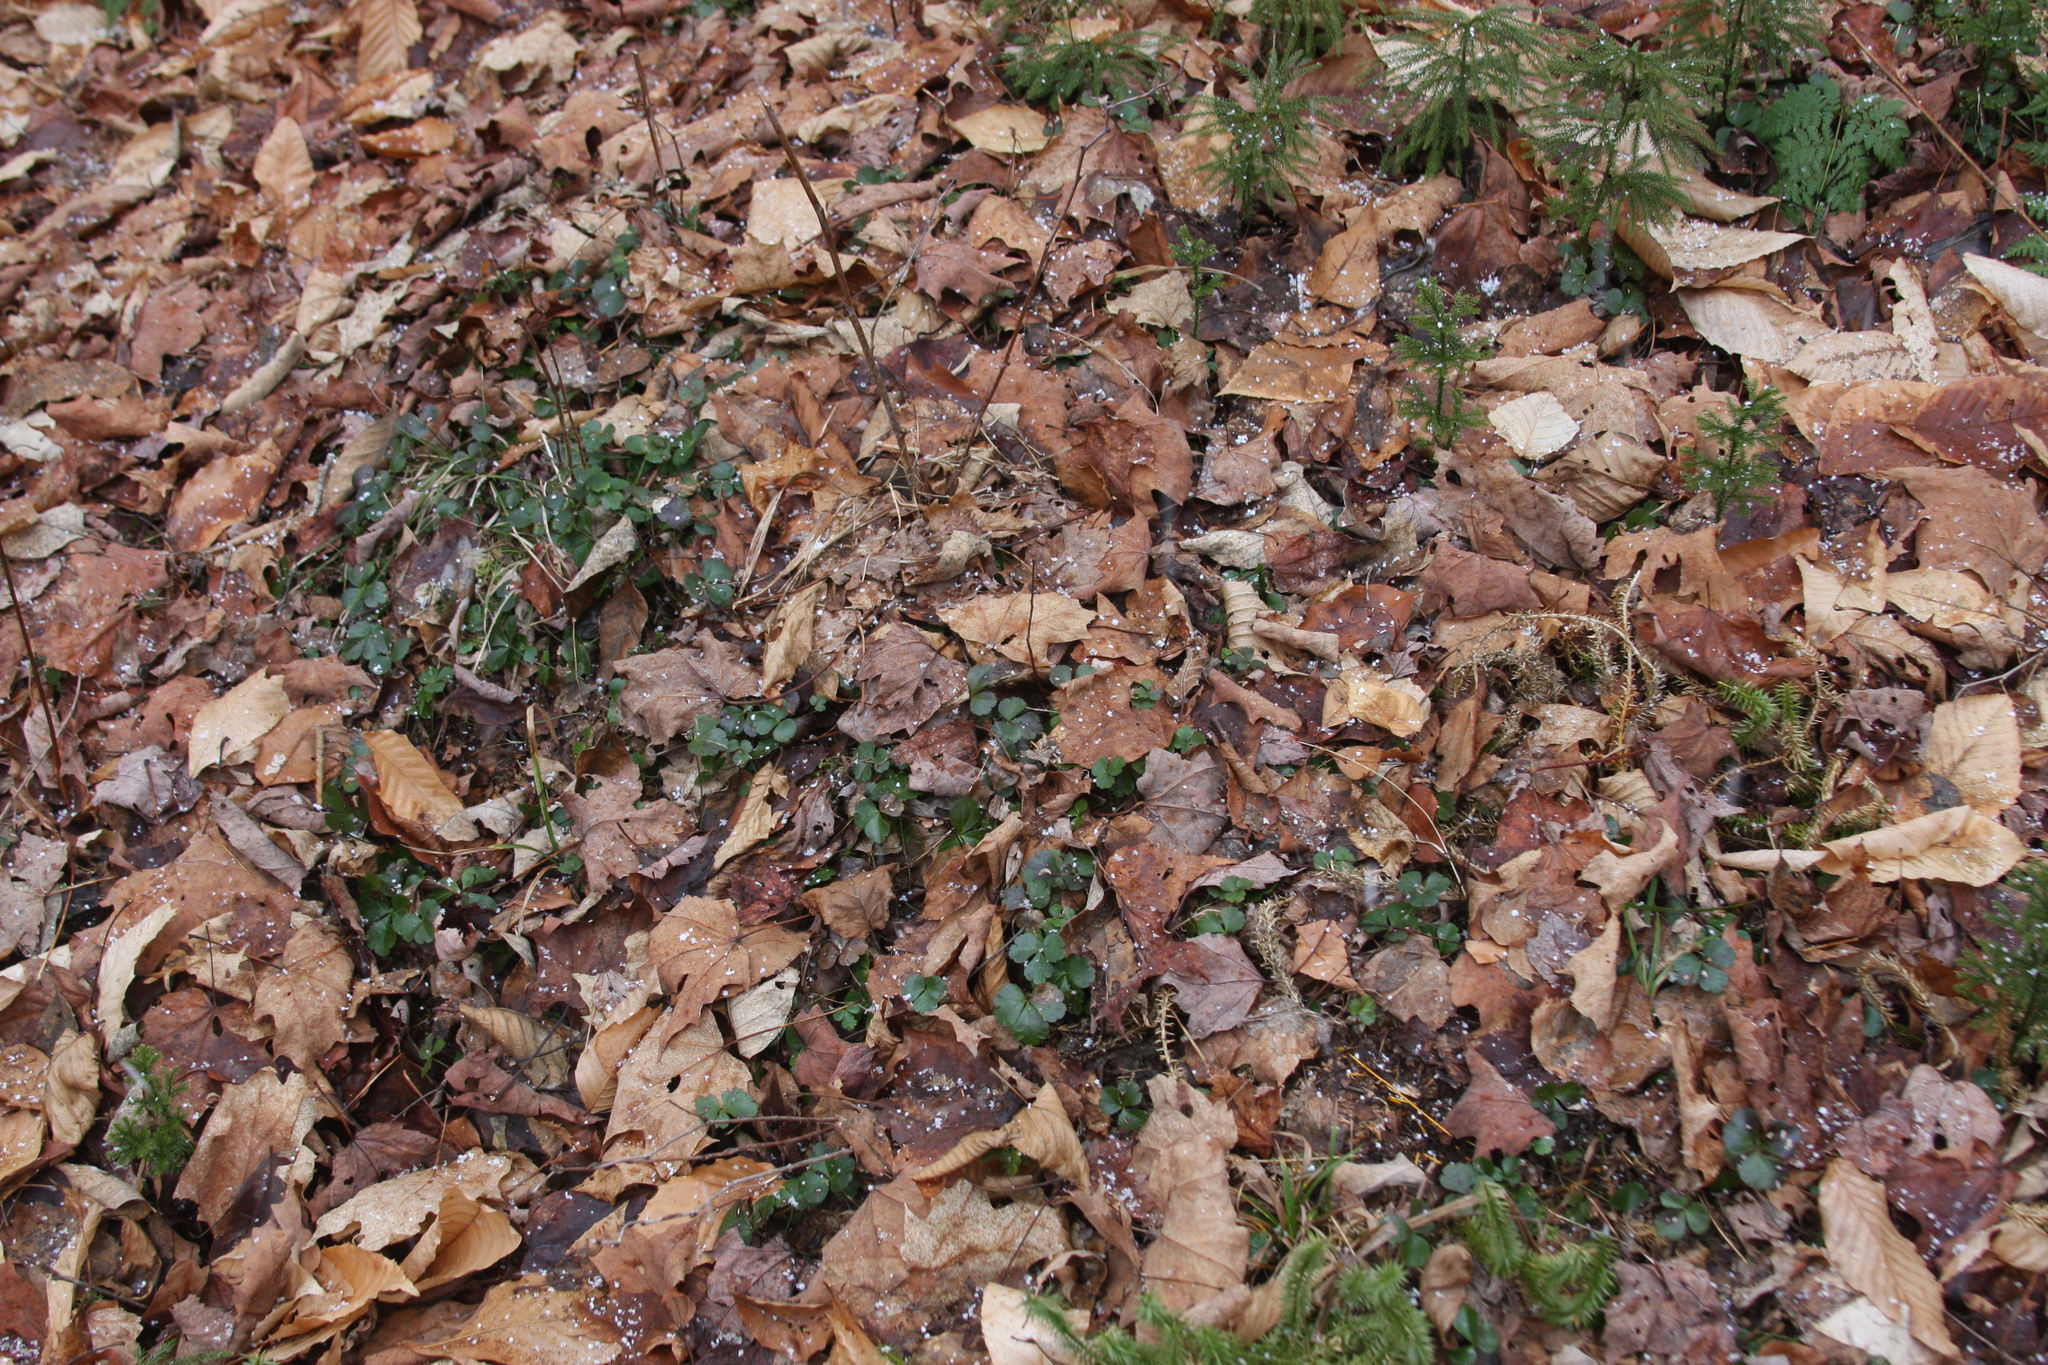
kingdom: Plantae
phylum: Tracheophyta
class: Magnoliopsida
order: Ranunculales
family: Ranunculaceae
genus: Coptis
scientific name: Coptis trifolia
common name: Canker-root
